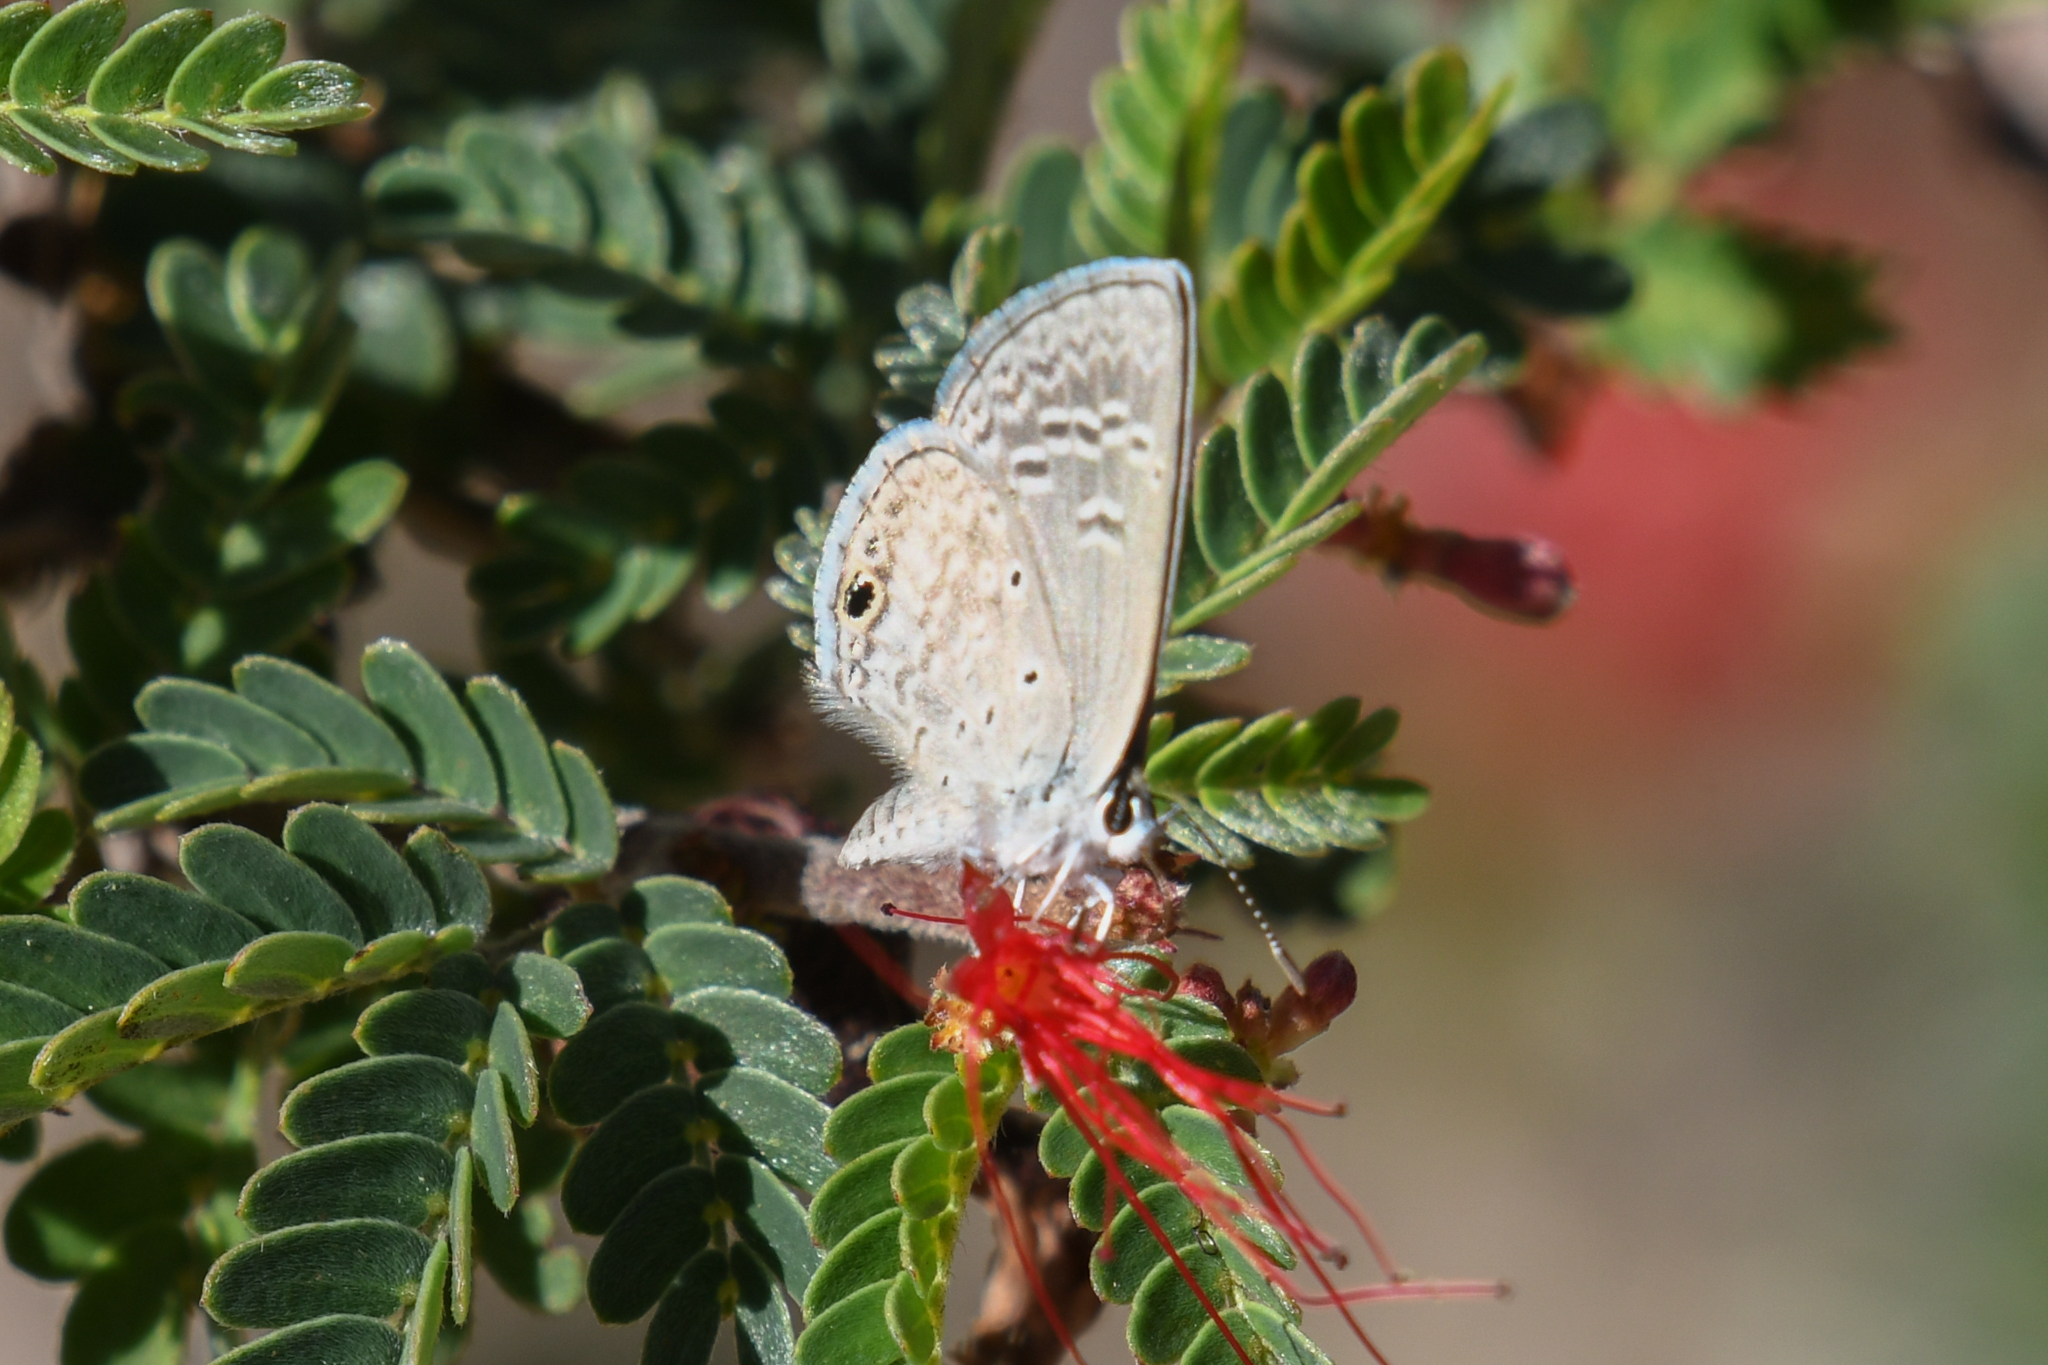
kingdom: Animalia
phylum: Arthropoda
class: Insecta
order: Lepidoptera
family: Lycaenidae
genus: Hemiargus
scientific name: Hemiargus ceraunus
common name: Ceraunus blue
